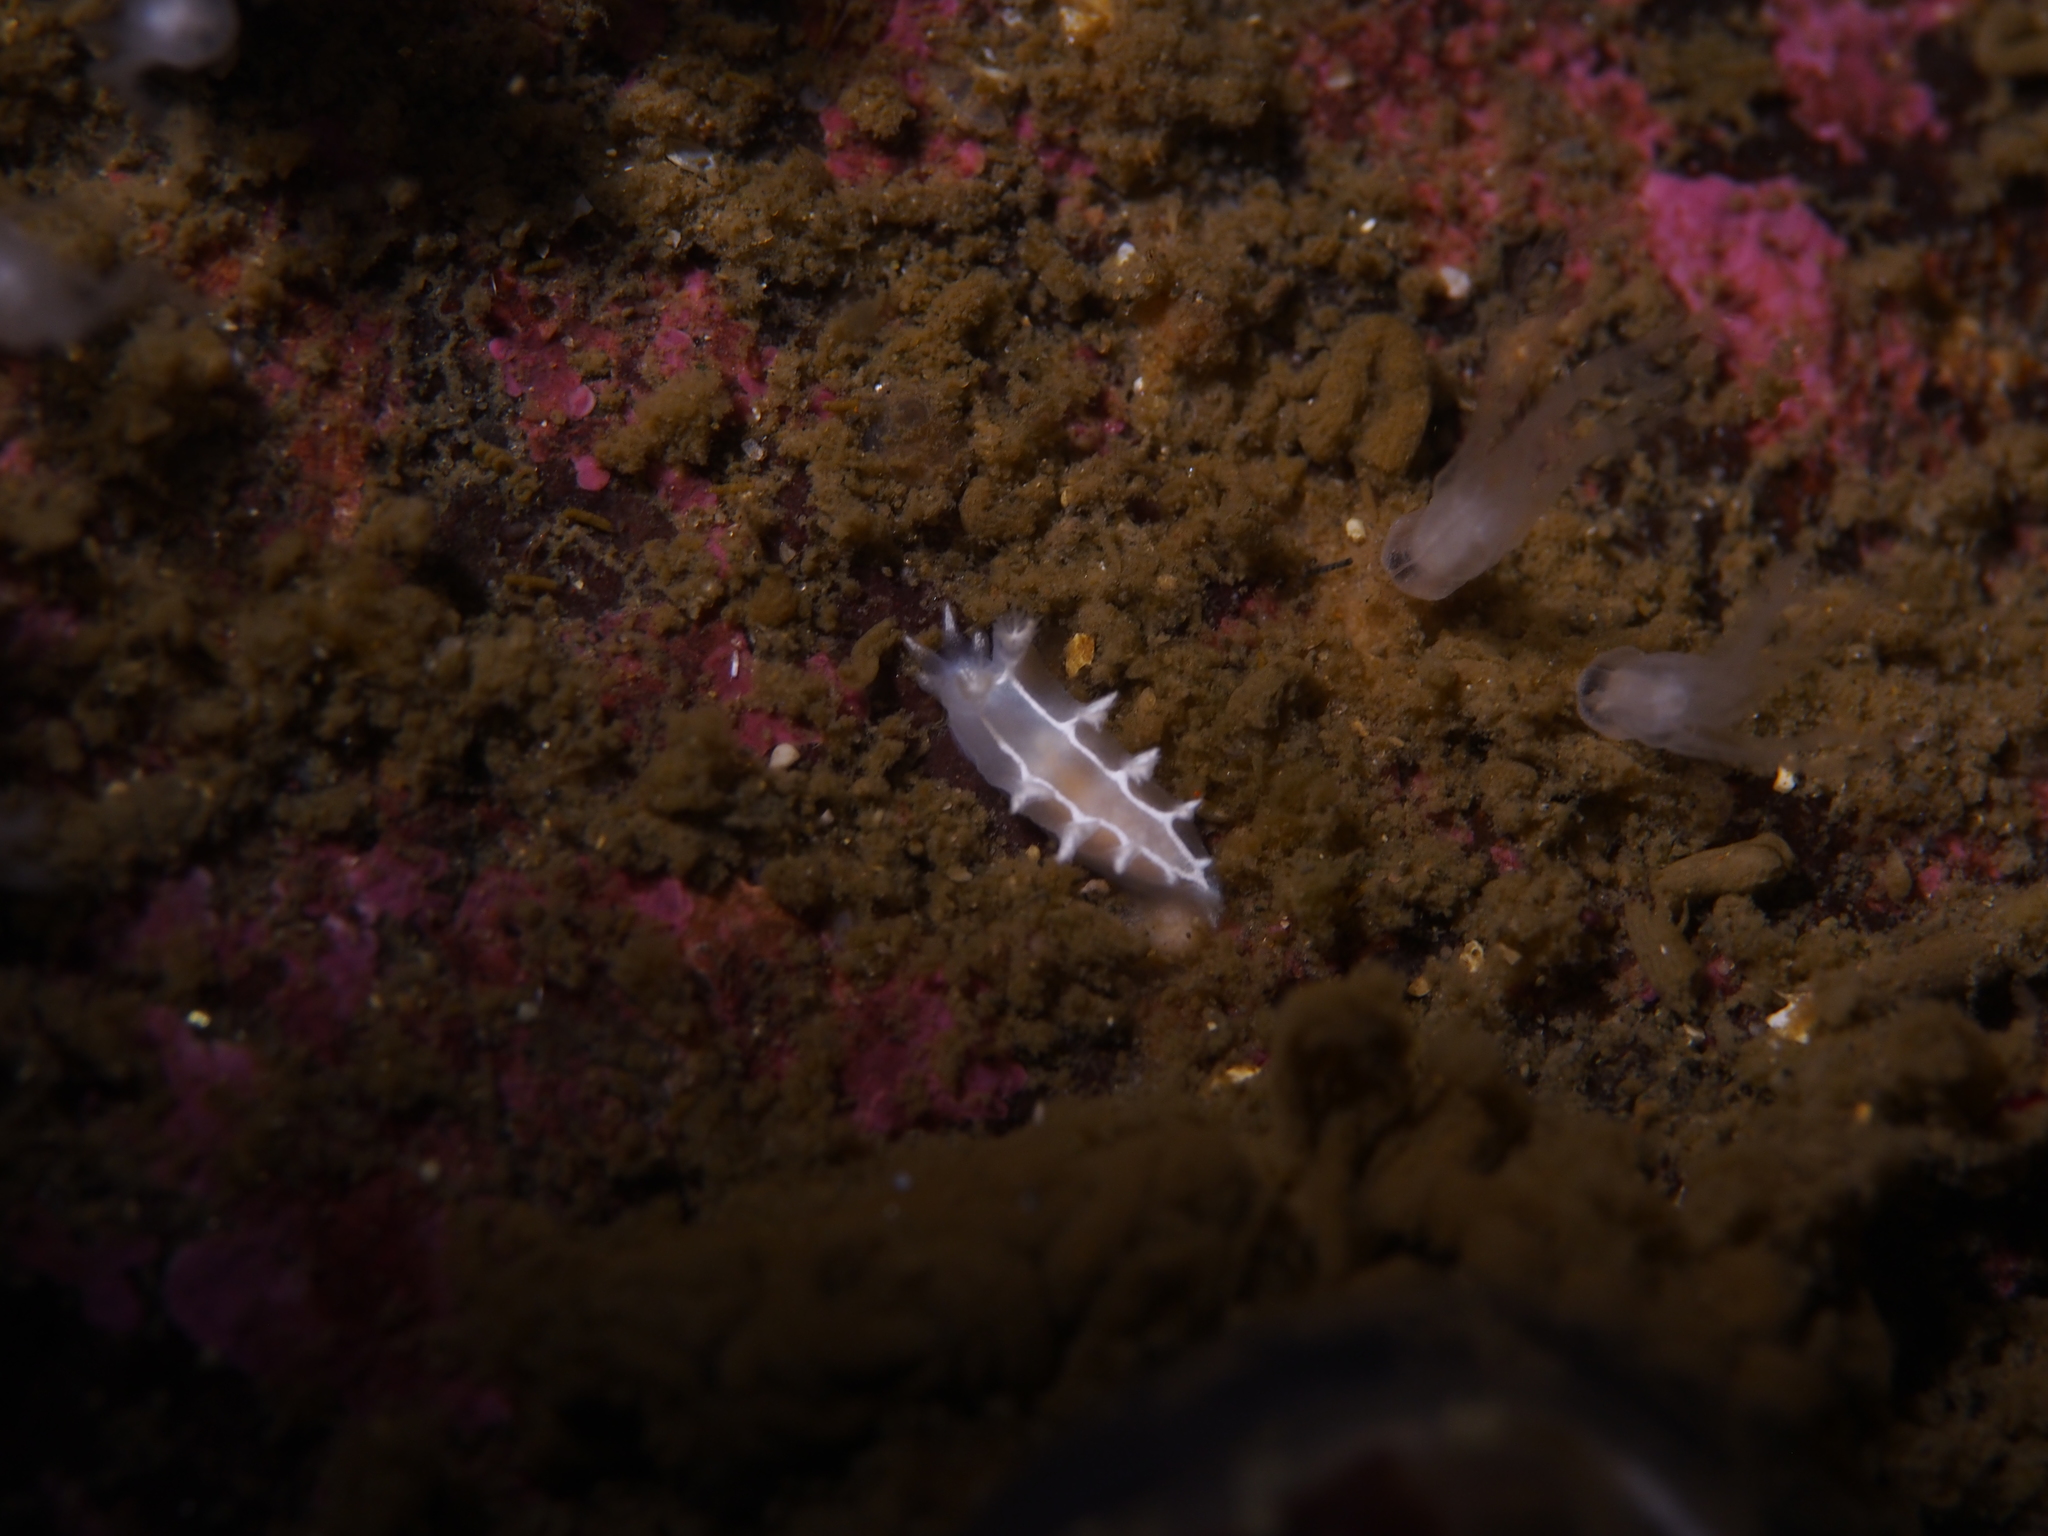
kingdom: Animalia
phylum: Mollusca
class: Gastropoda
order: Nudibranchia
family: Tritoniidae
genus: Duvaucelia
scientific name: Duvaucelia lineata
